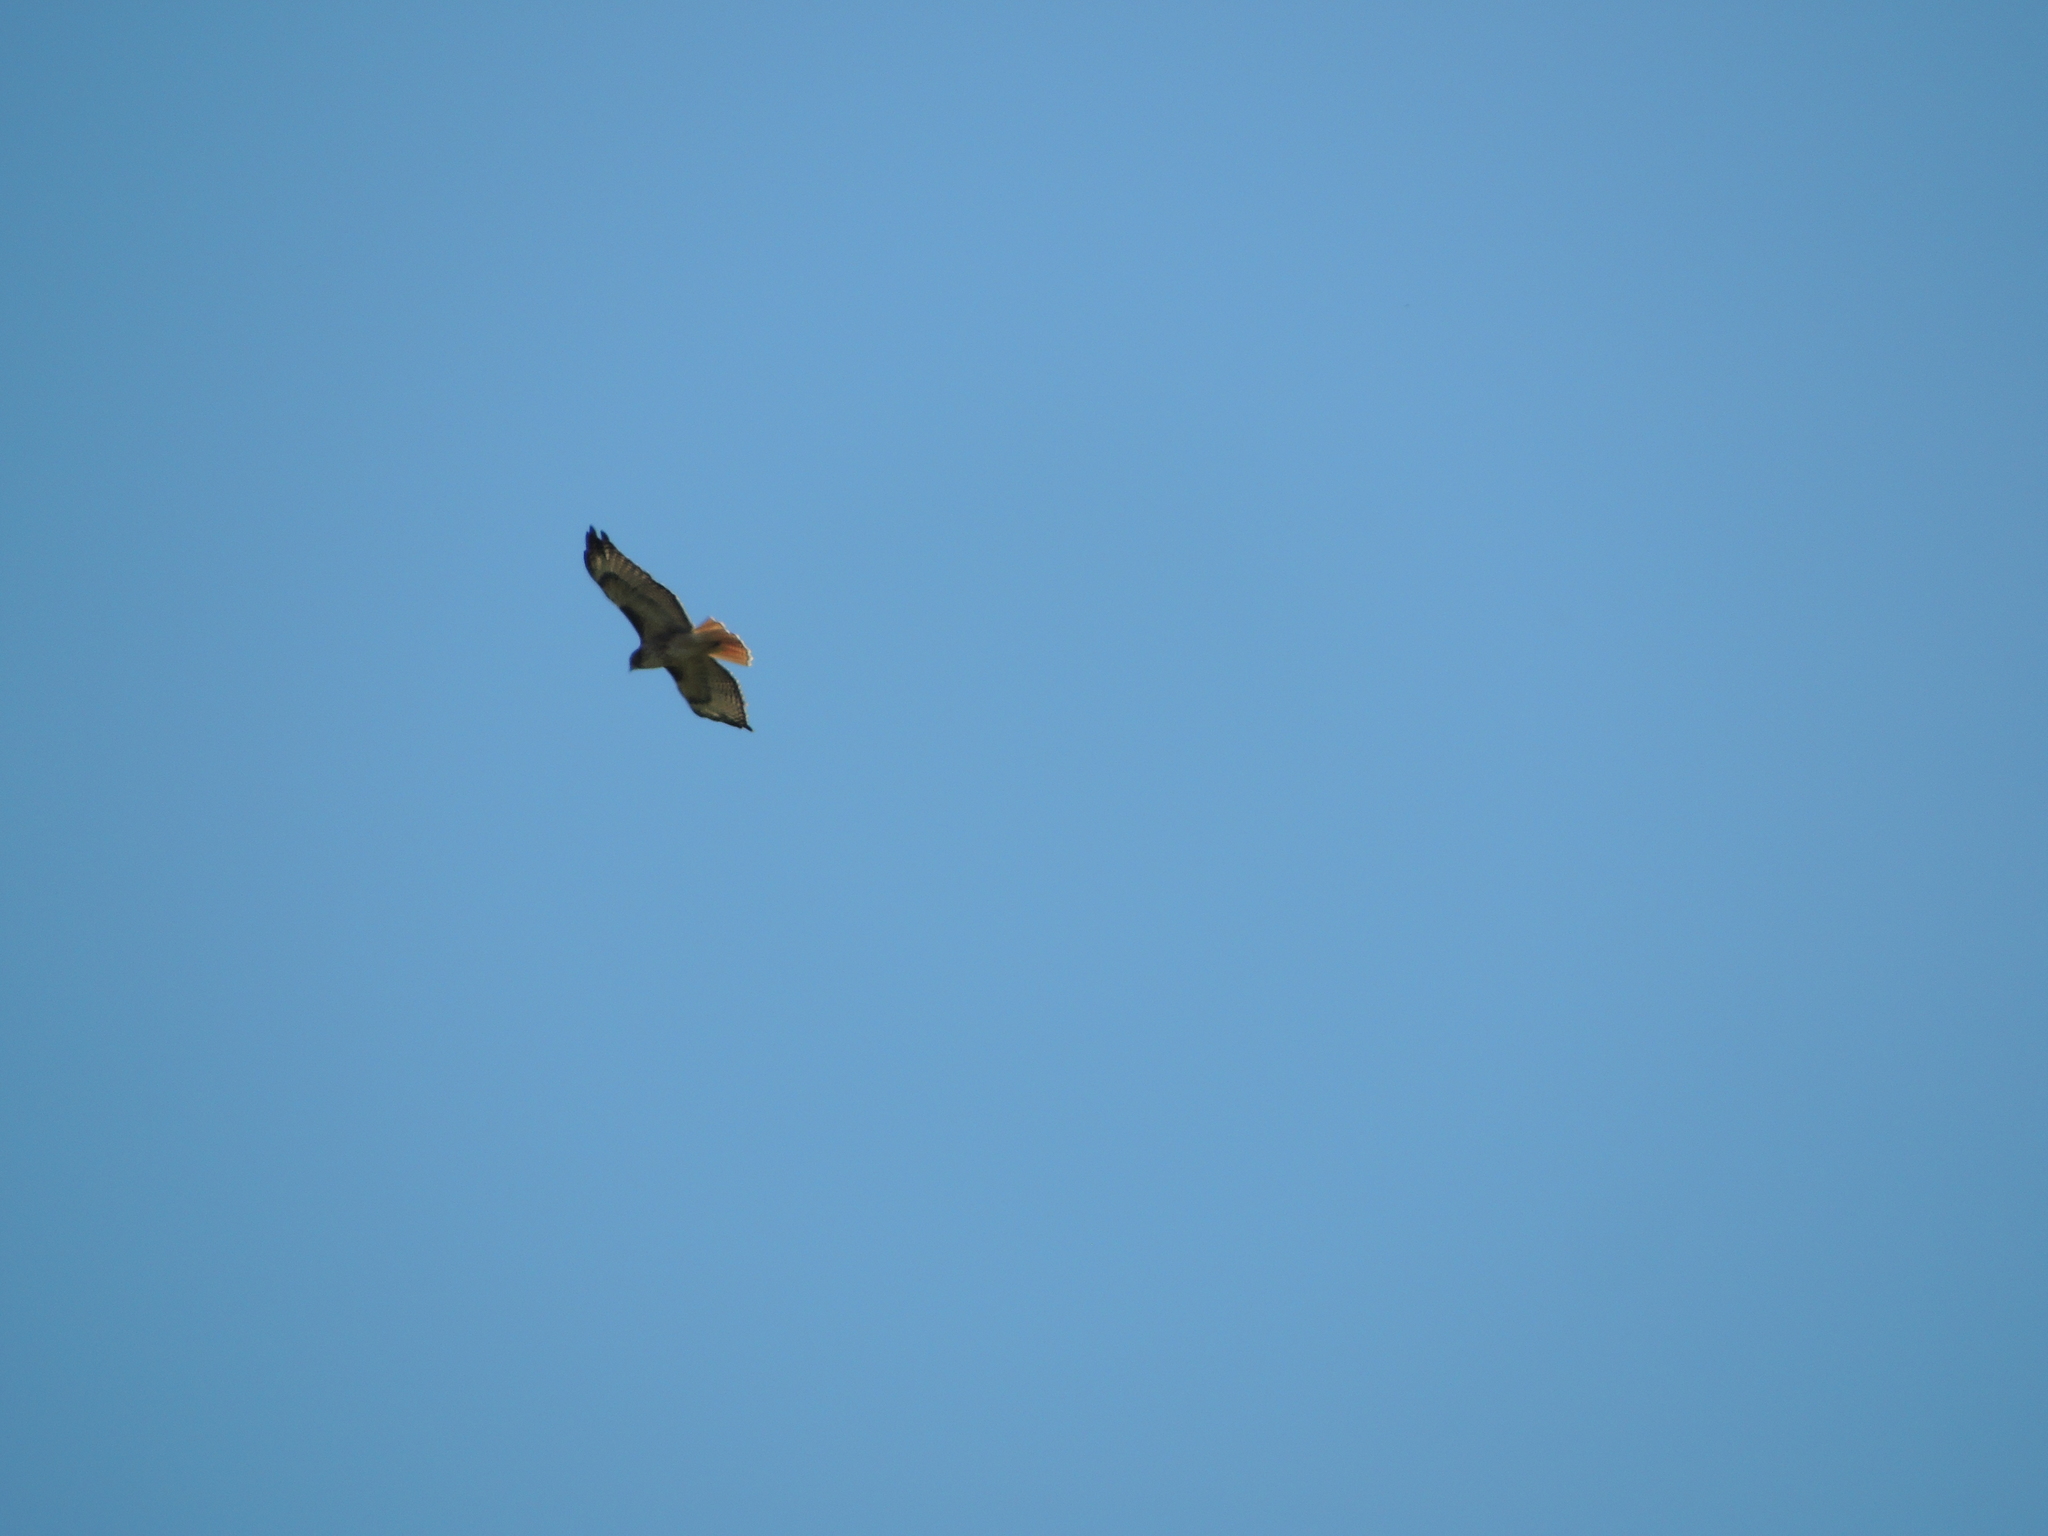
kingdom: Animalia
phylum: Chordata
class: Aves
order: Accipitriformes
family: Accipitridae
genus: Buteo
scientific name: Buteo jamaicensis
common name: Red-tailed hawk
